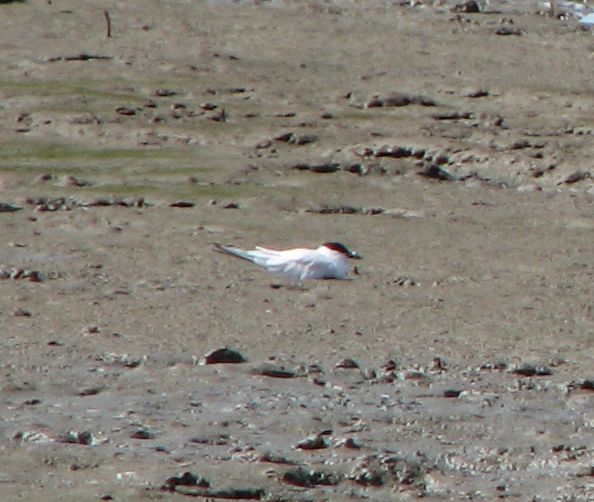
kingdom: Animalia
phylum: Chordata
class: Aves
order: Charadriiformes
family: Laridae
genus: Gelochelidon
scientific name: Gelochelidon
